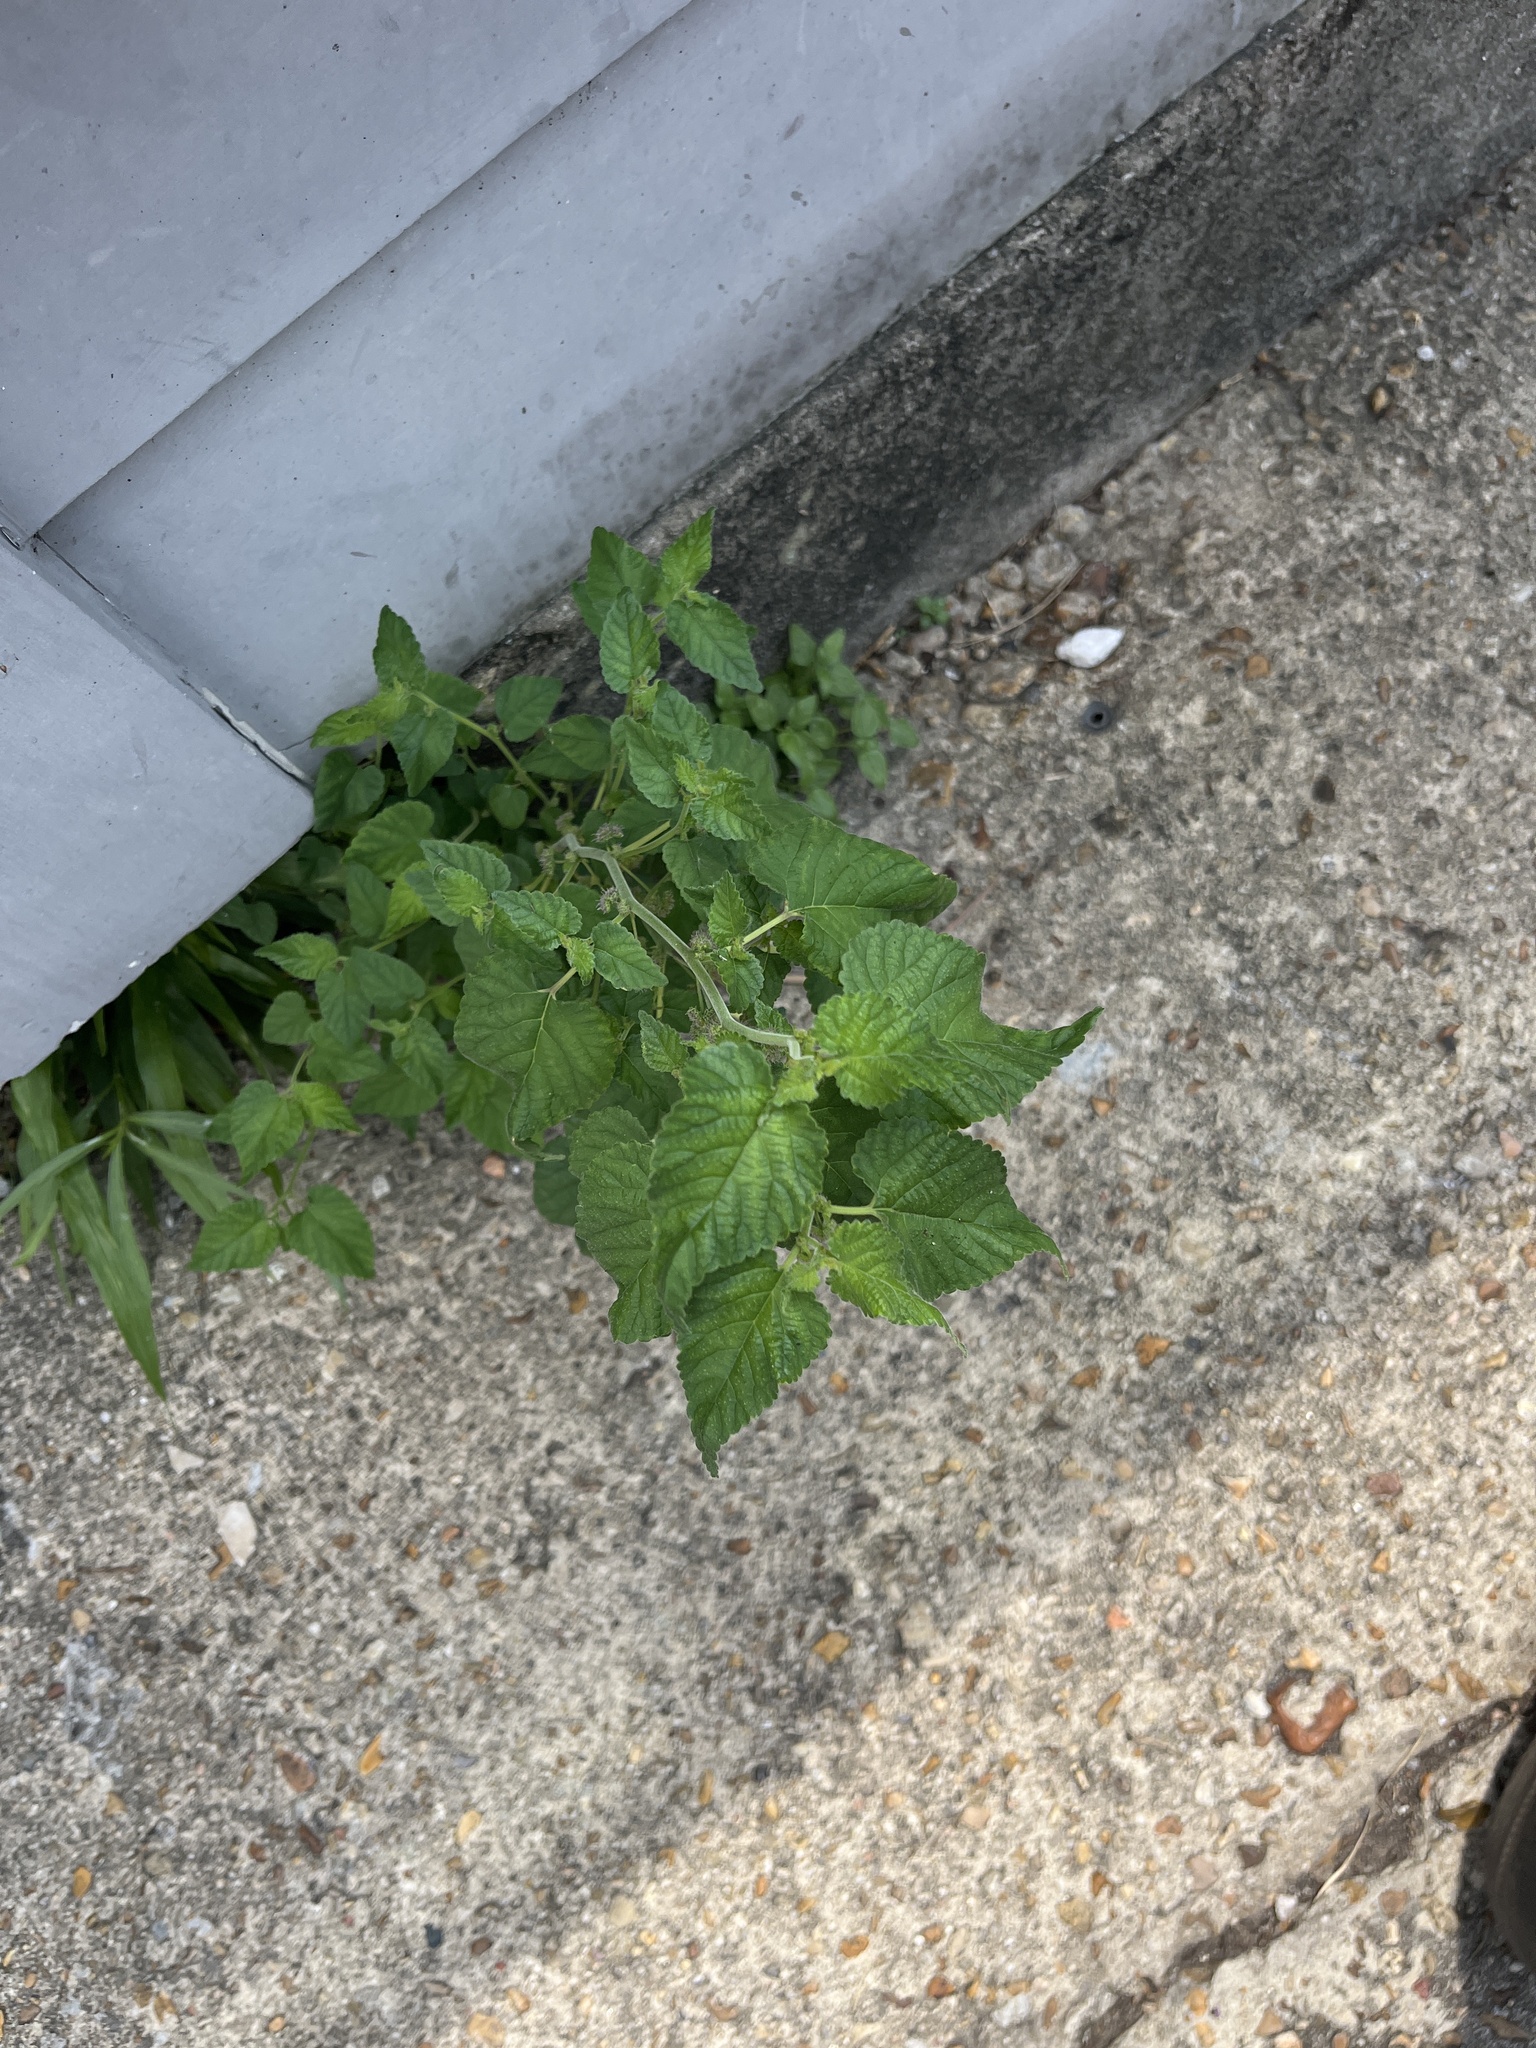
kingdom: Plantae
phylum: Tracheophyta
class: Magnoliopsida
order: Rosales
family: Moraceae
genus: Fatoua
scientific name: Fatoua villosa
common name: Hairy crabweed
